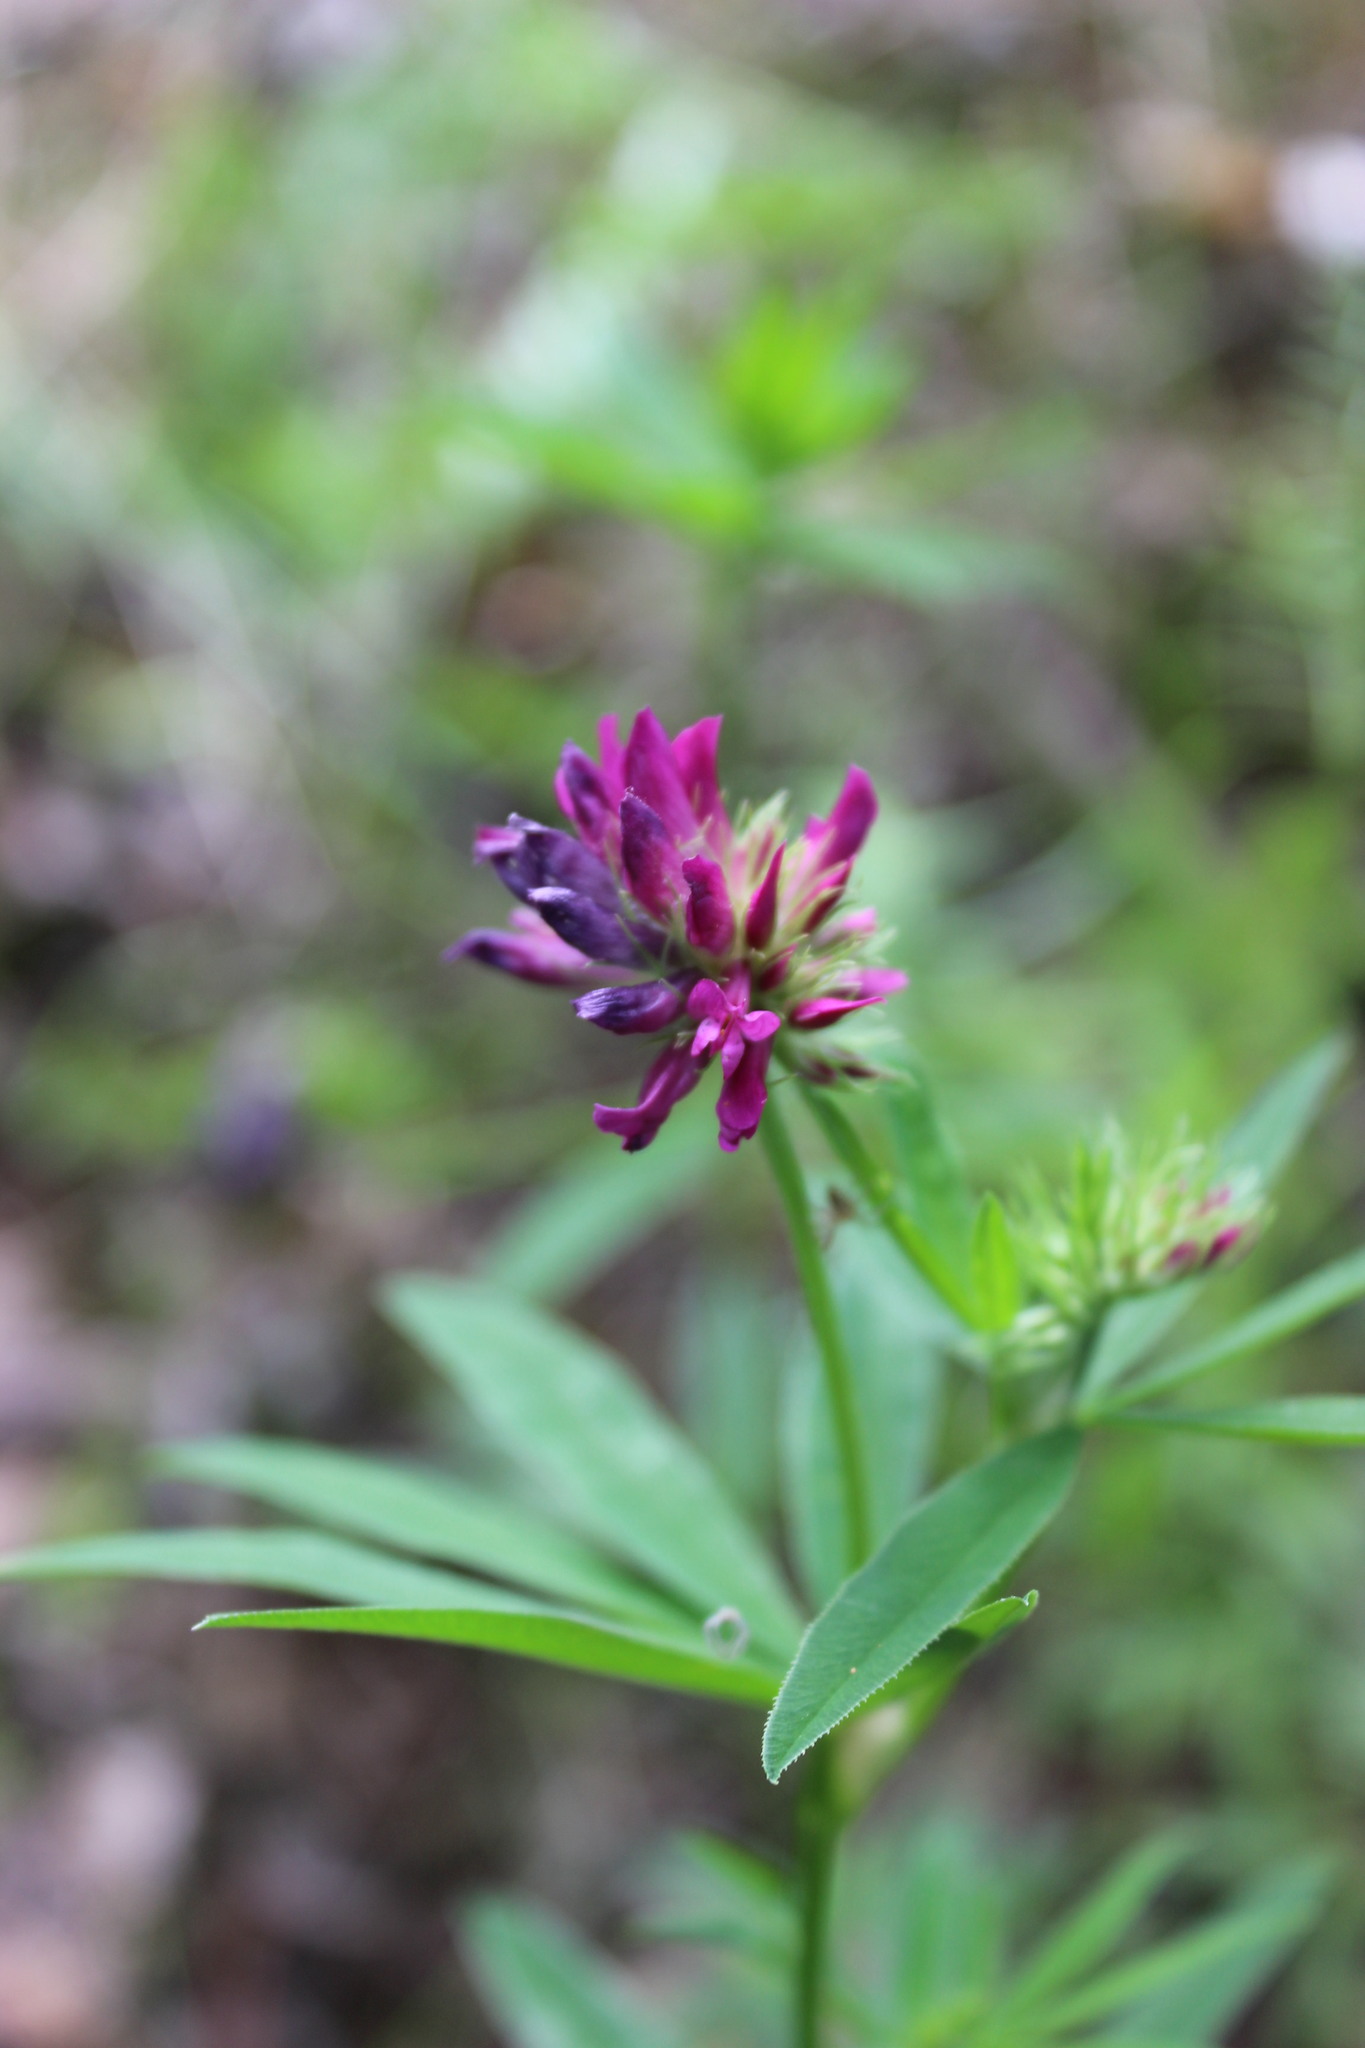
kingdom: Plantae
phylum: Tracheophyta
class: Magnoliopsida
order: Fabales
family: Fabaceae
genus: Trifolium
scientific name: Trifolium lupinaster
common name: Lupine clover
